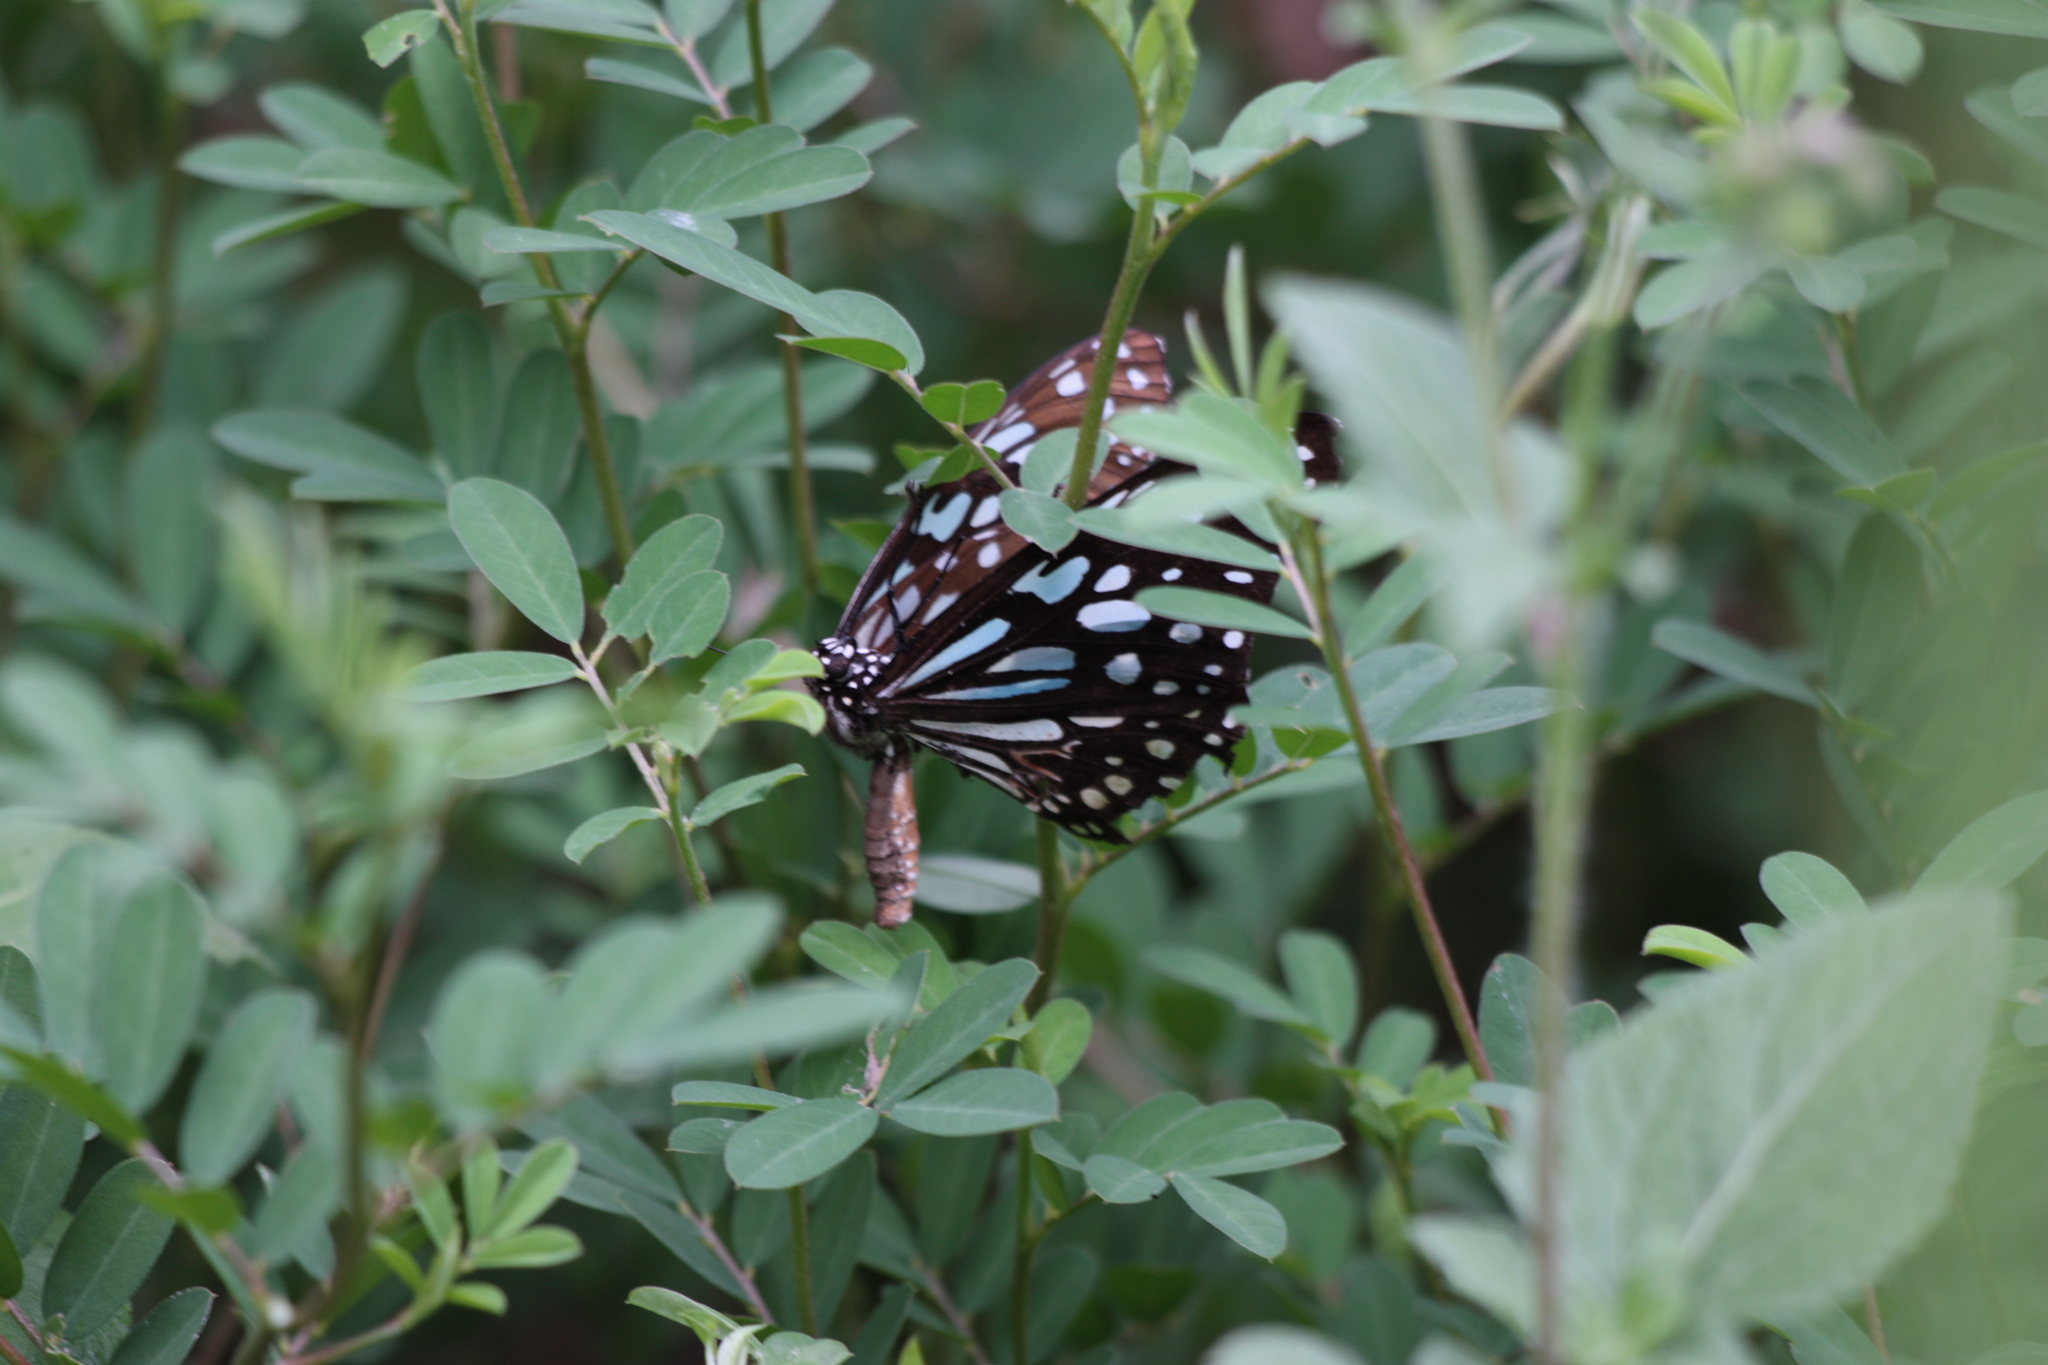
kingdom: Animalia
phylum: Arthropoda
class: Insecta
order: Lepidoptera
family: Nymphalidae
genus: Tirumala
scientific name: Tirumala limniace
